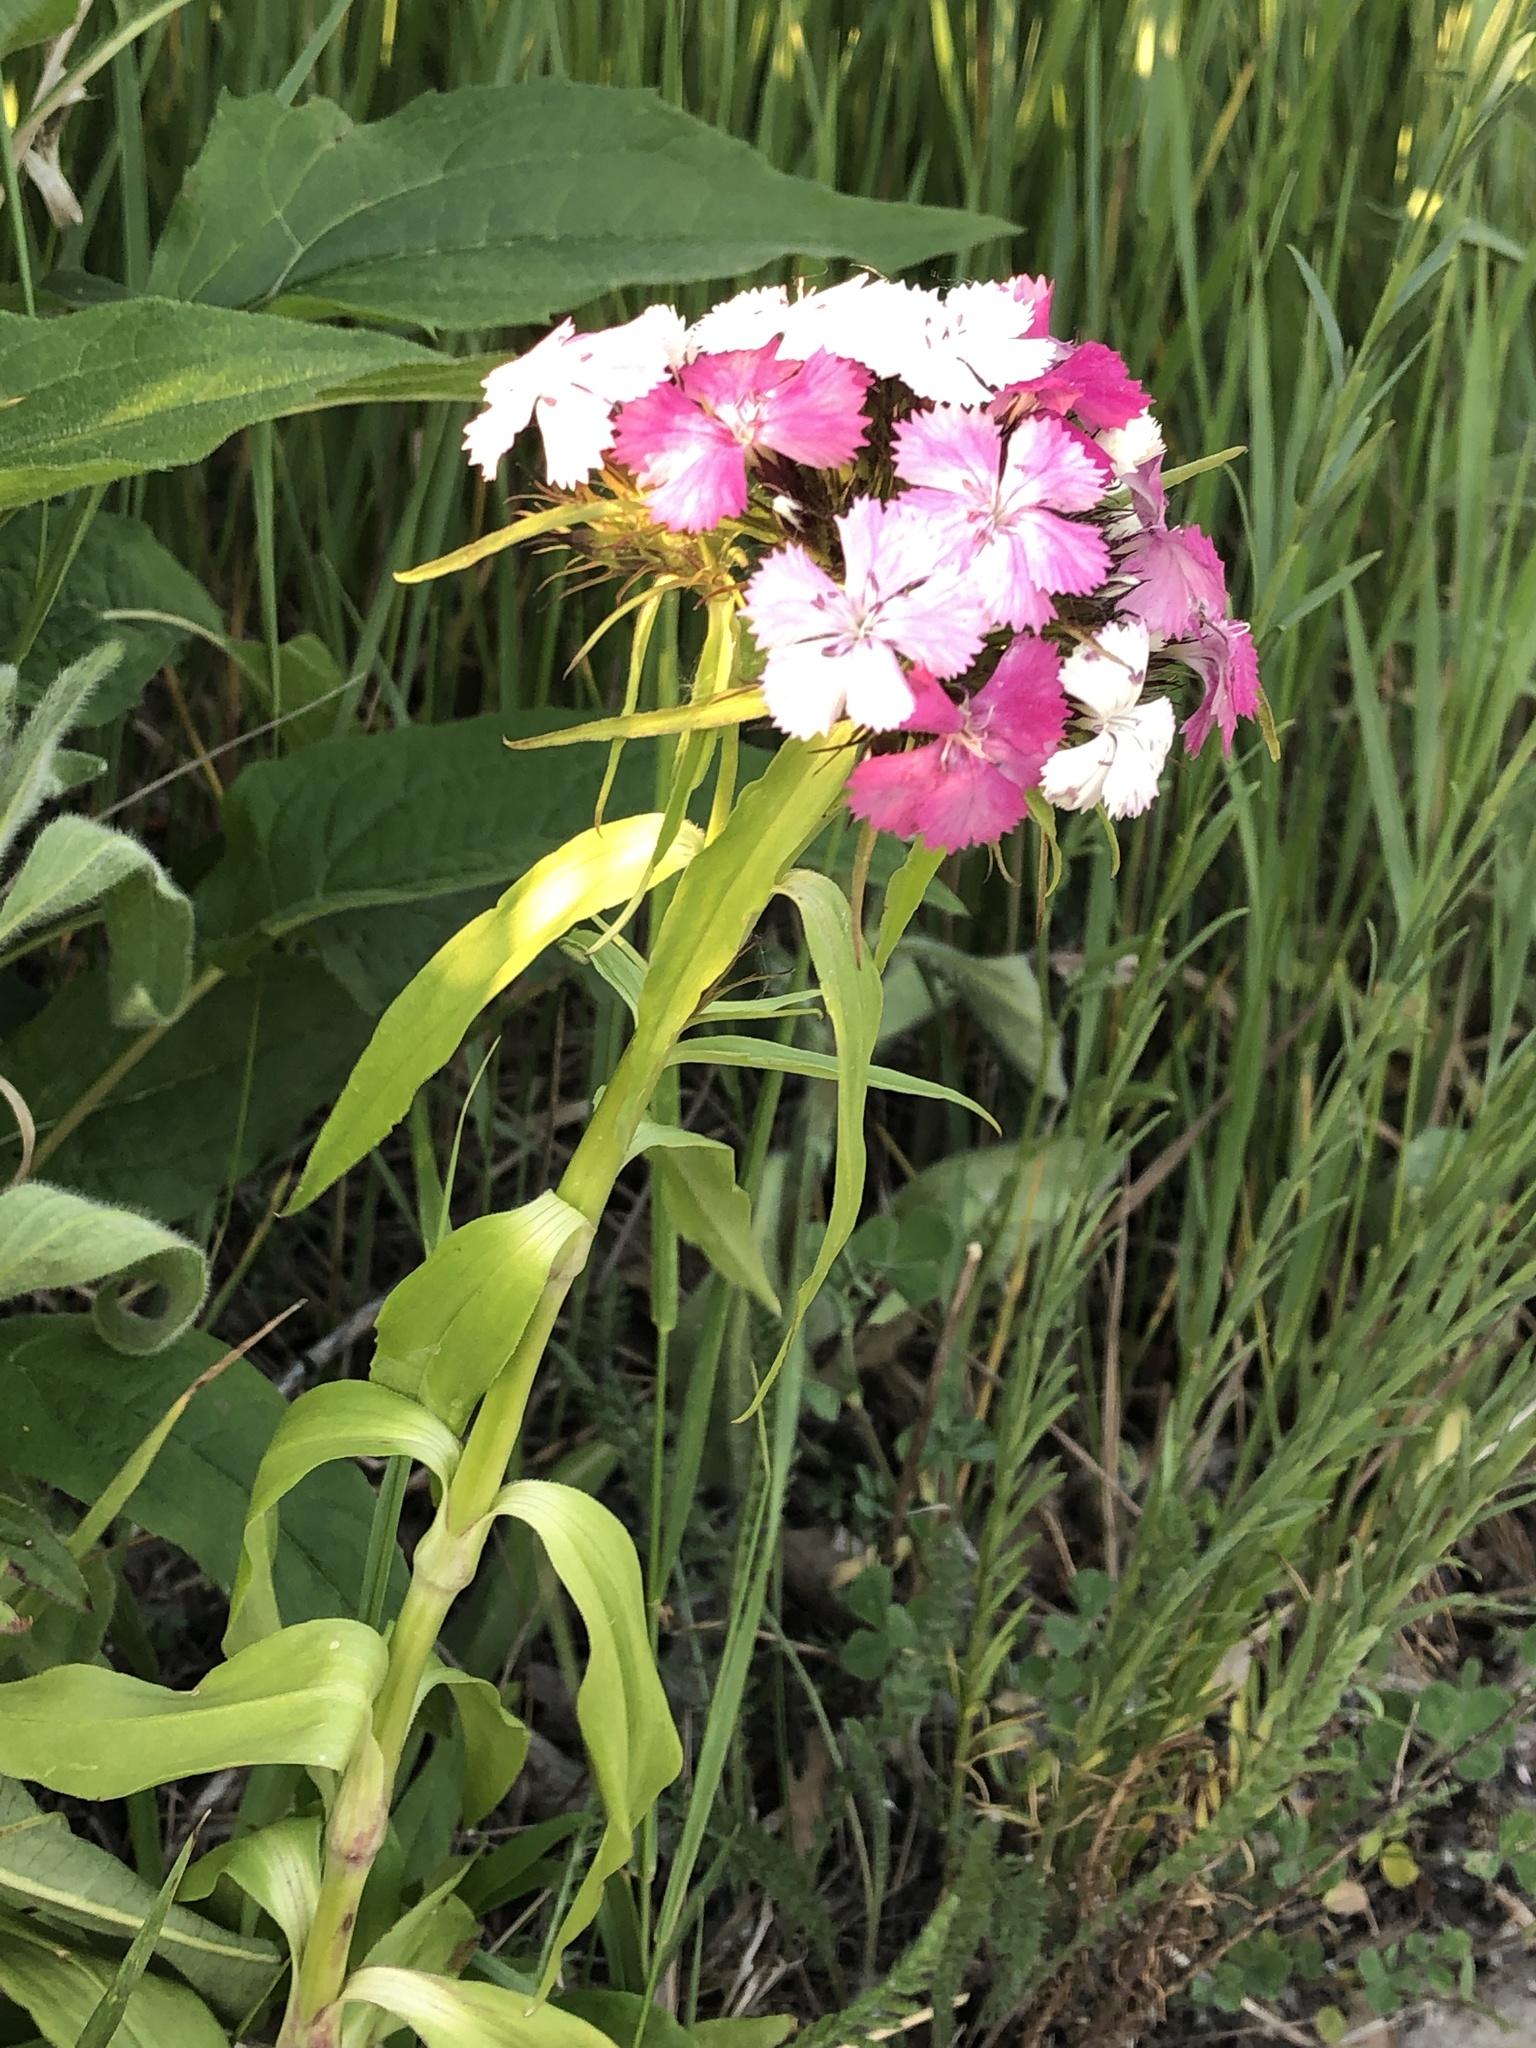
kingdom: Plantae
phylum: Tracheophyta
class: Magnoliopsida
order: Caryophyllales
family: Caryophyllaceae
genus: Dianthus
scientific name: Dianthus barbatus
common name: Sweet-william
